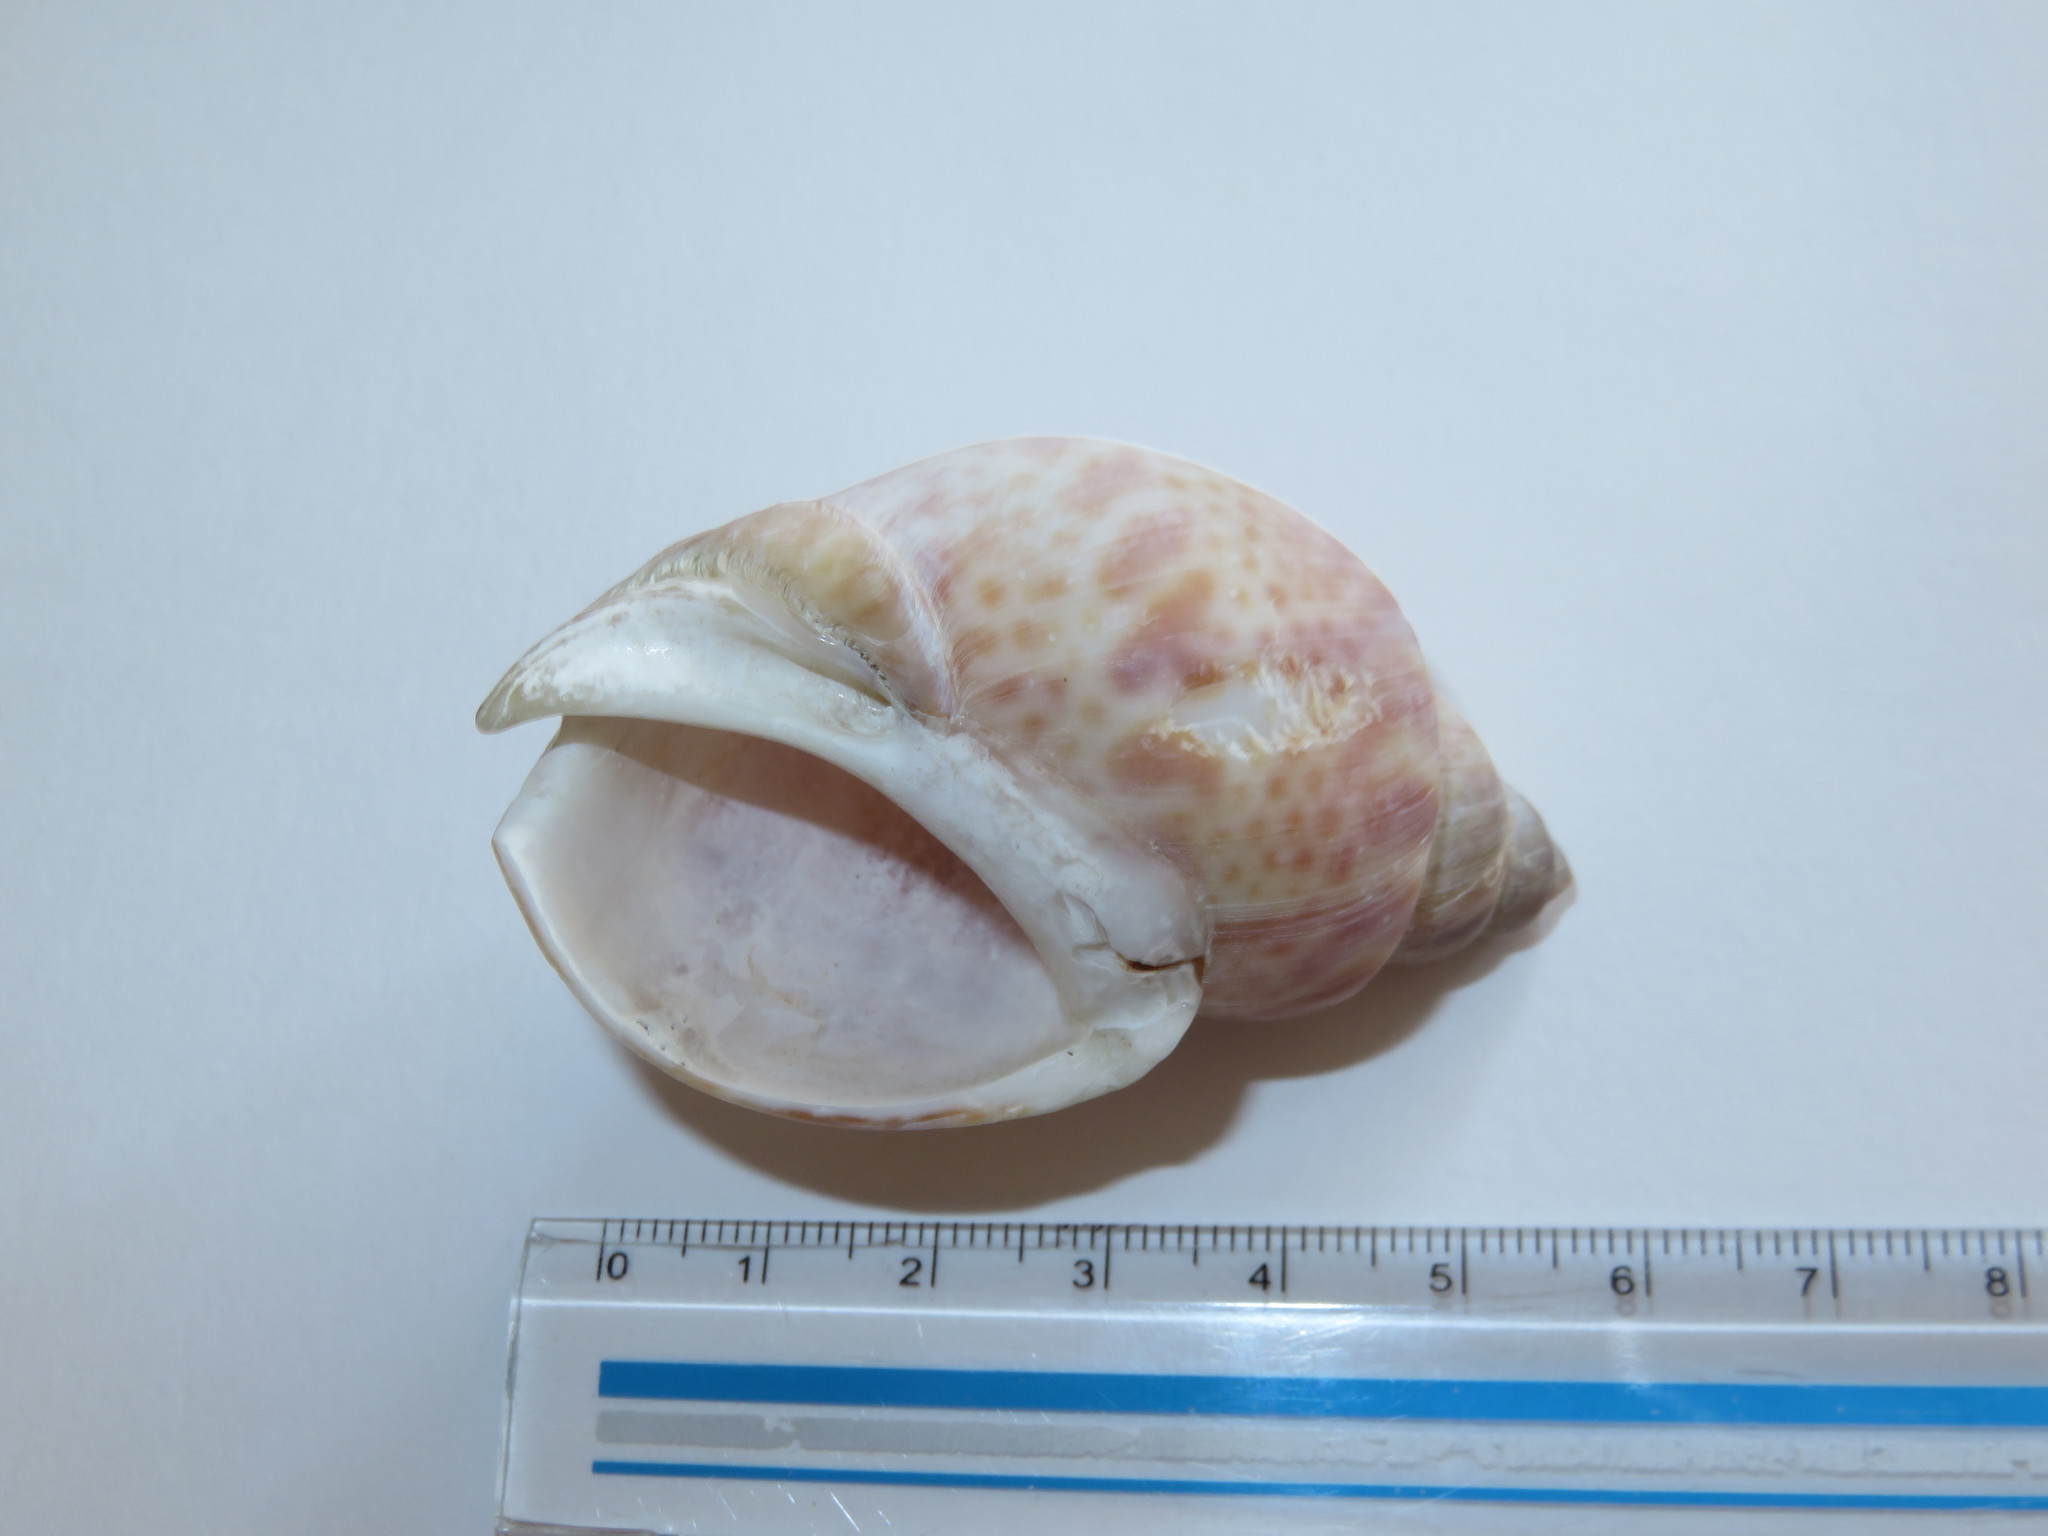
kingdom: Animalia
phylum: Mollusca
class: Gastropoda
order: Neogastropoda
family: Babyloniidae
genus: Babylonia
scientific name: Babylonia japonica
